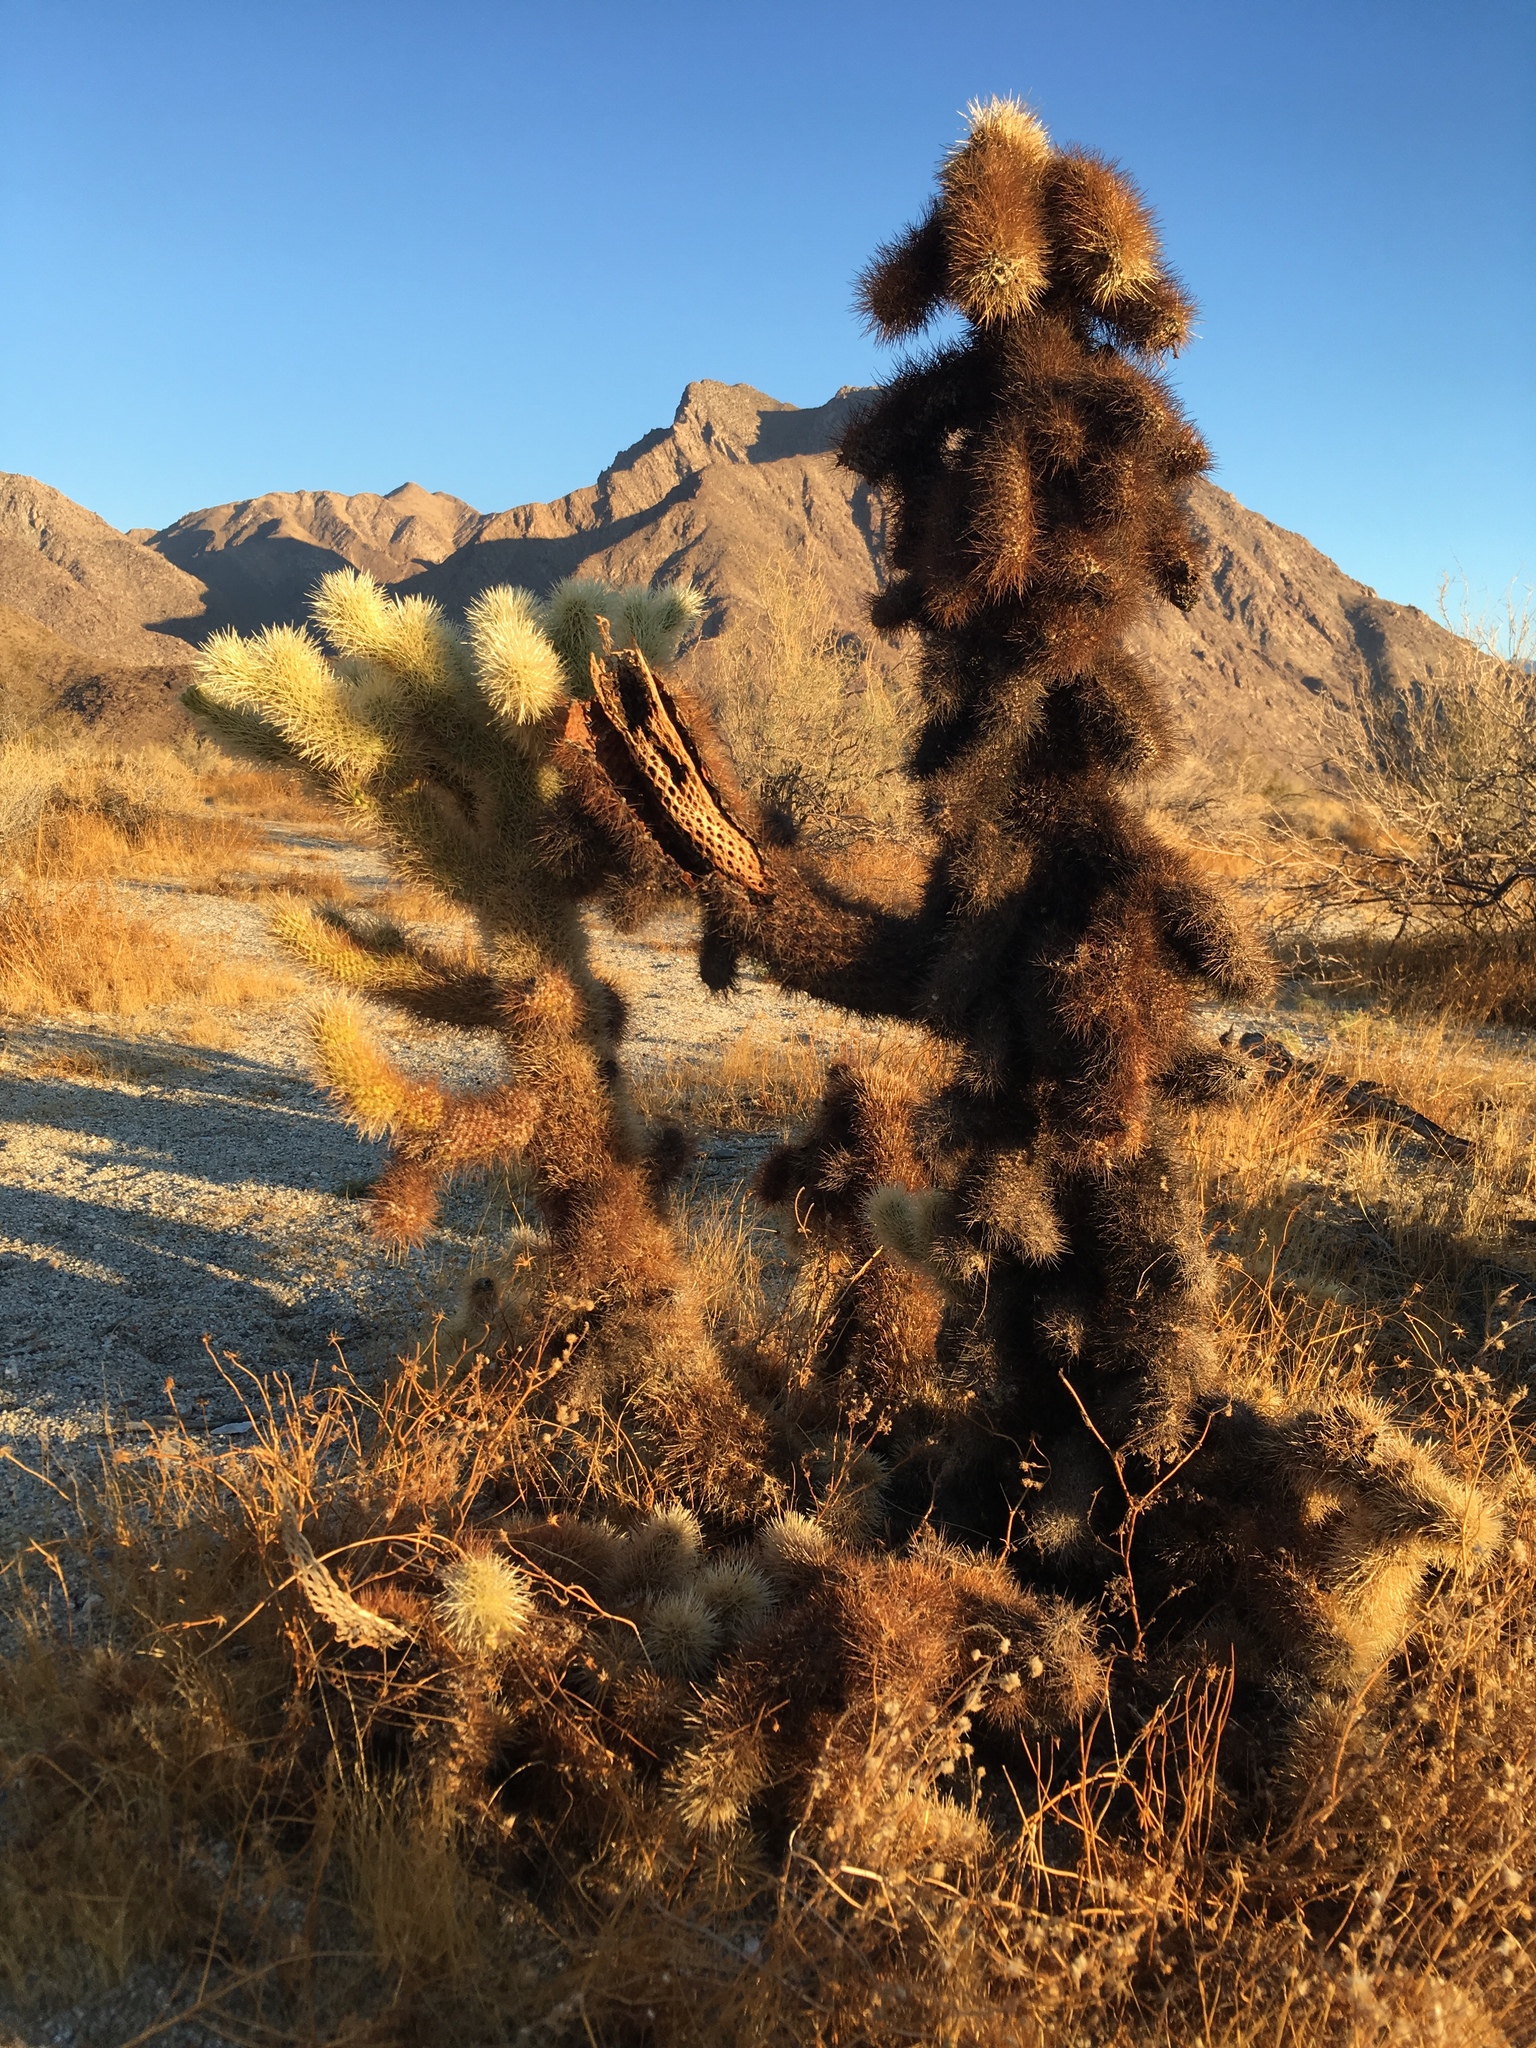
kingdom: Plantae
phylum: Tracheophyta
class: Magnoliopsida
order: Caryophyllales
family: Cactaceae
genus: Cylindropuntia
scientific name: Cylindropuntia fosbergii
